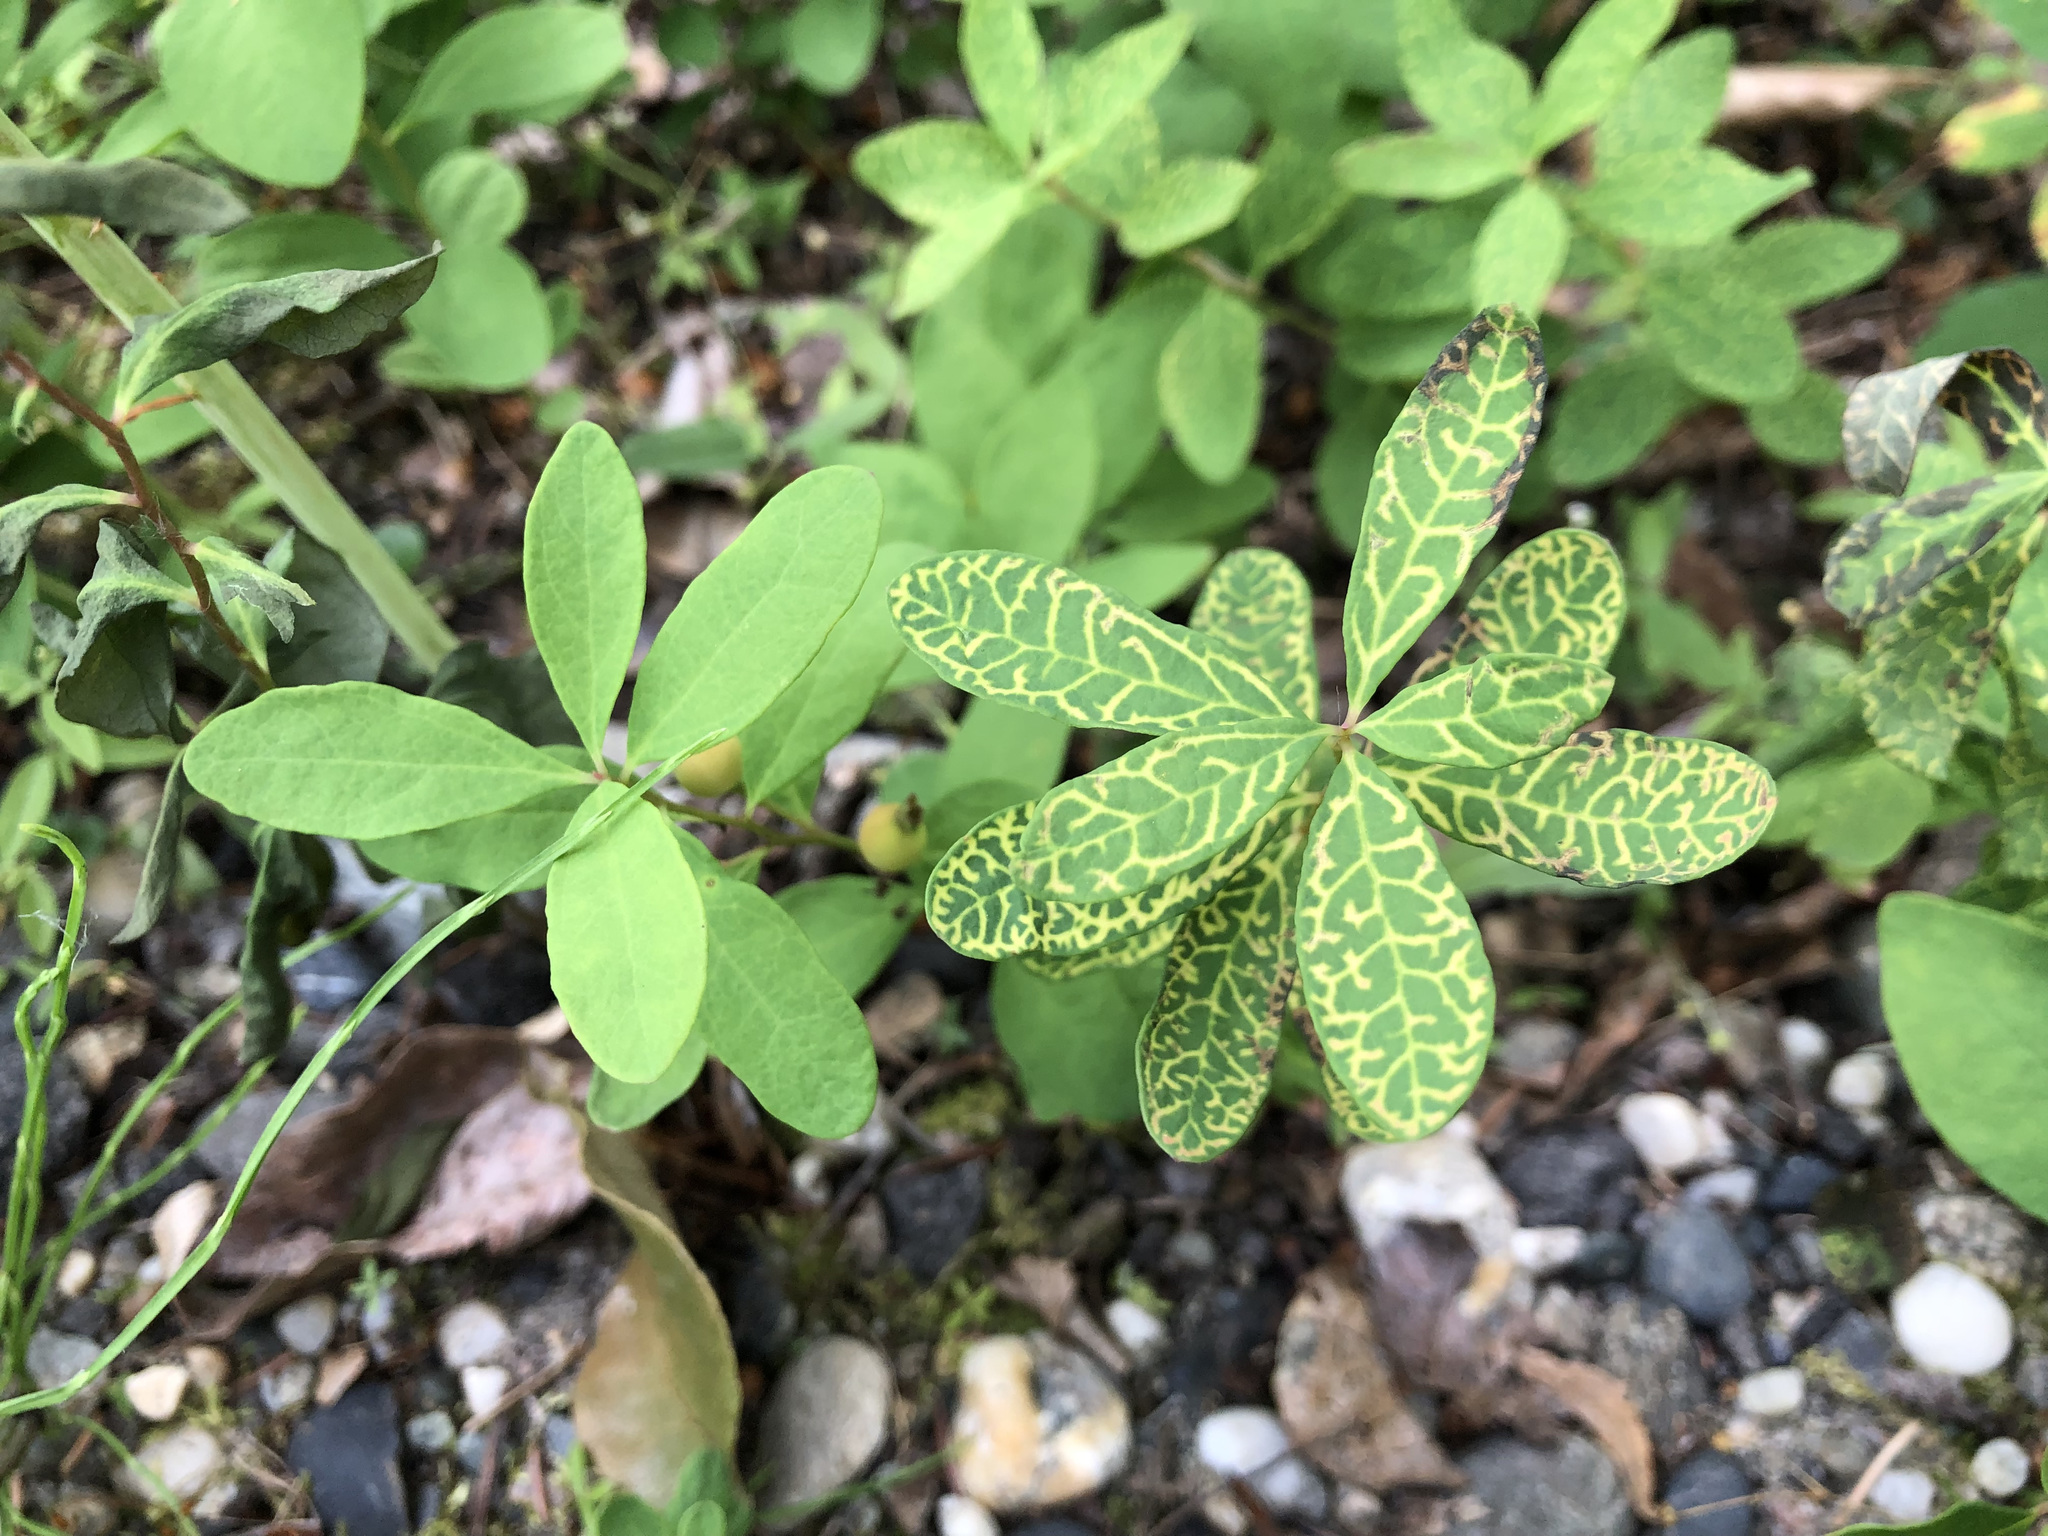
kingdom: Plantae
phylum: Tracheophyta
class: Magnoliopsida
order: Santalales
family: Comandraceae
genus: Geocaulon
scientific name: Geocaulon lividum
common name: Earthberry
